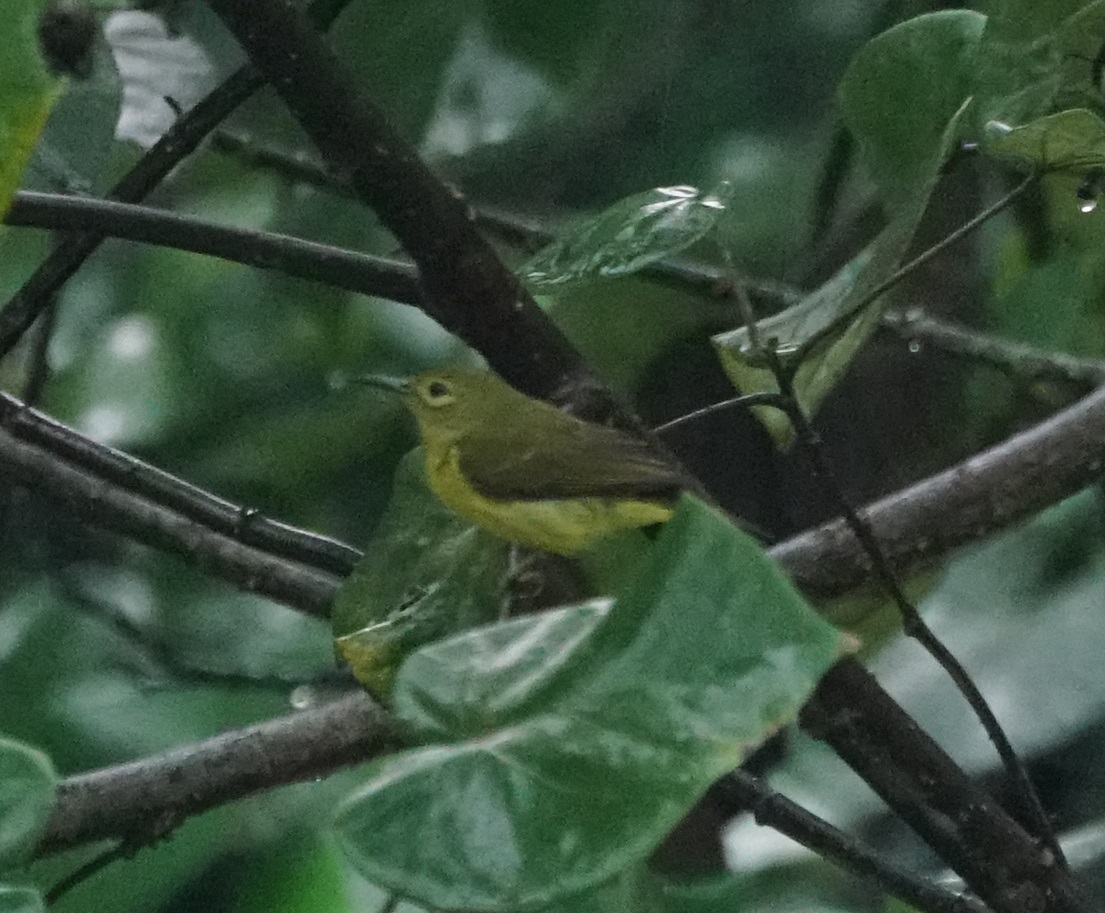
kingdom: Animalia
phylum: Chordata
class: Aves
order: Passeriformes
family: Nectariniidae
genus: Anthreptes
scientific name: Anthreptes malacensis
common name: Brown-throated sunbird
